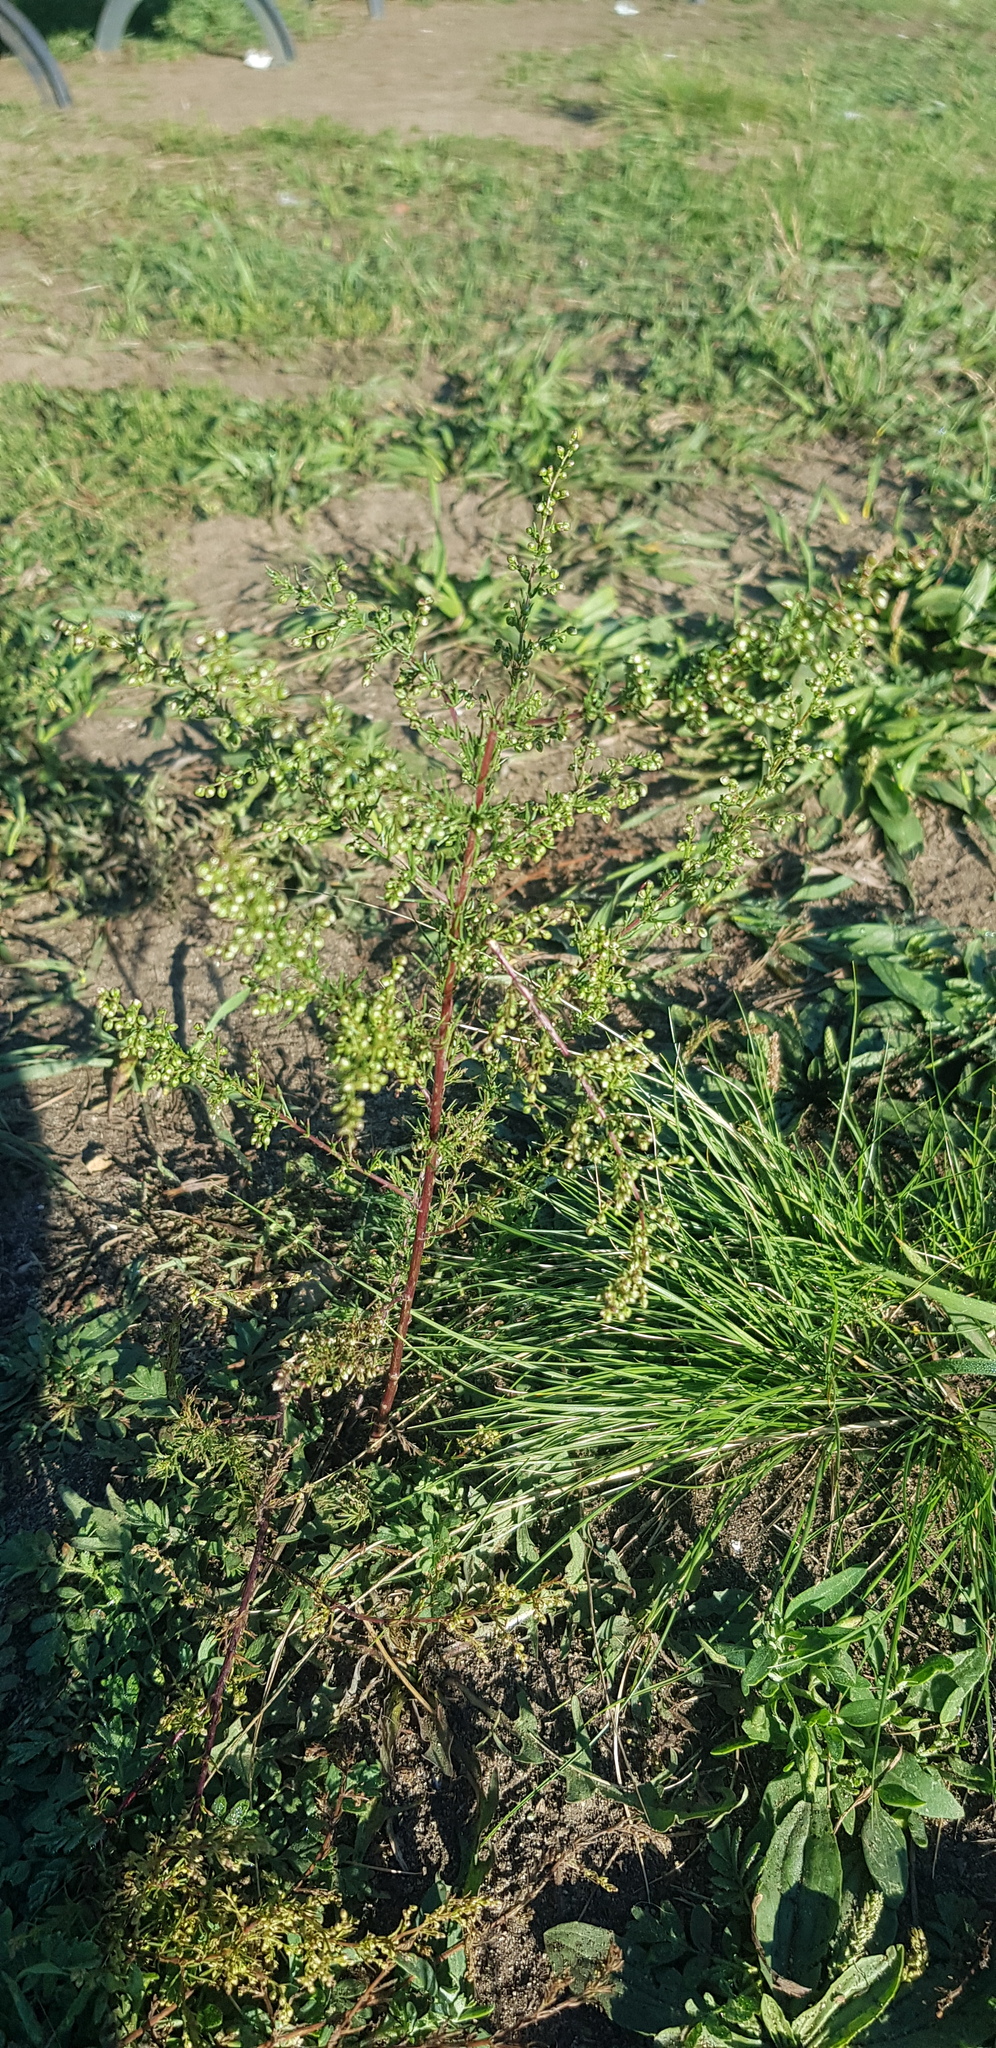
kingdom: Plantae
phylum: Tracheophyta
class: Magnoliopsida
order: Asterales
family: Asteraceae
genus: Artemisia
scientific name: Artemisia scoparia
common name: Redstem wormwood
